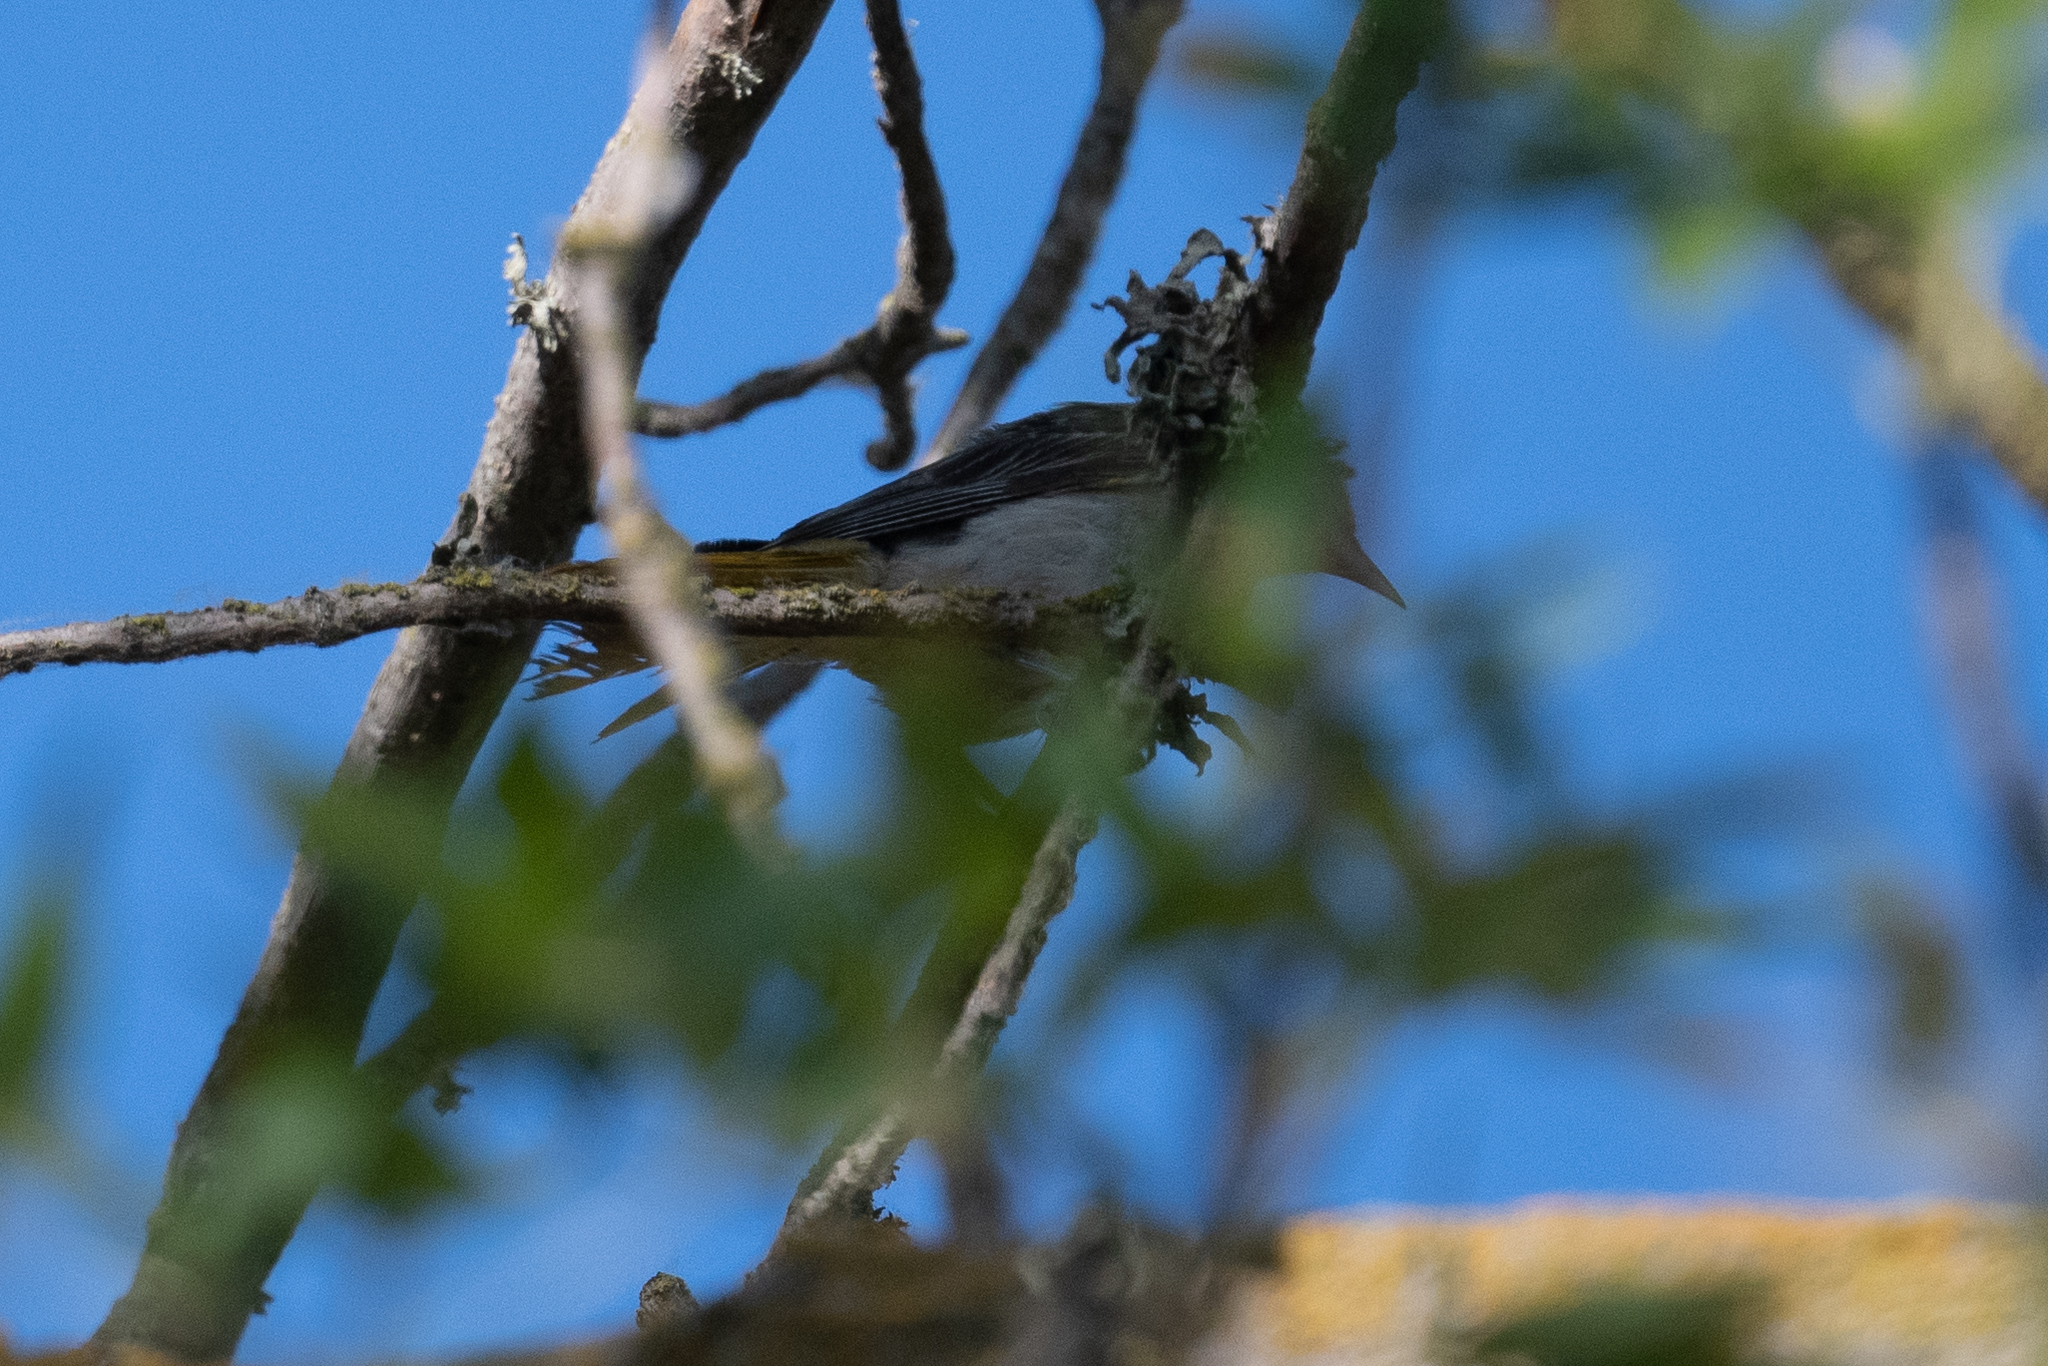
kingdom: Animalia
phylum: Chordata
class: Aves
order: Passeriformes
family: Icteridae
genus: Icterus
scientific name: Icterus bullockii
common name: Bullock's oriole
